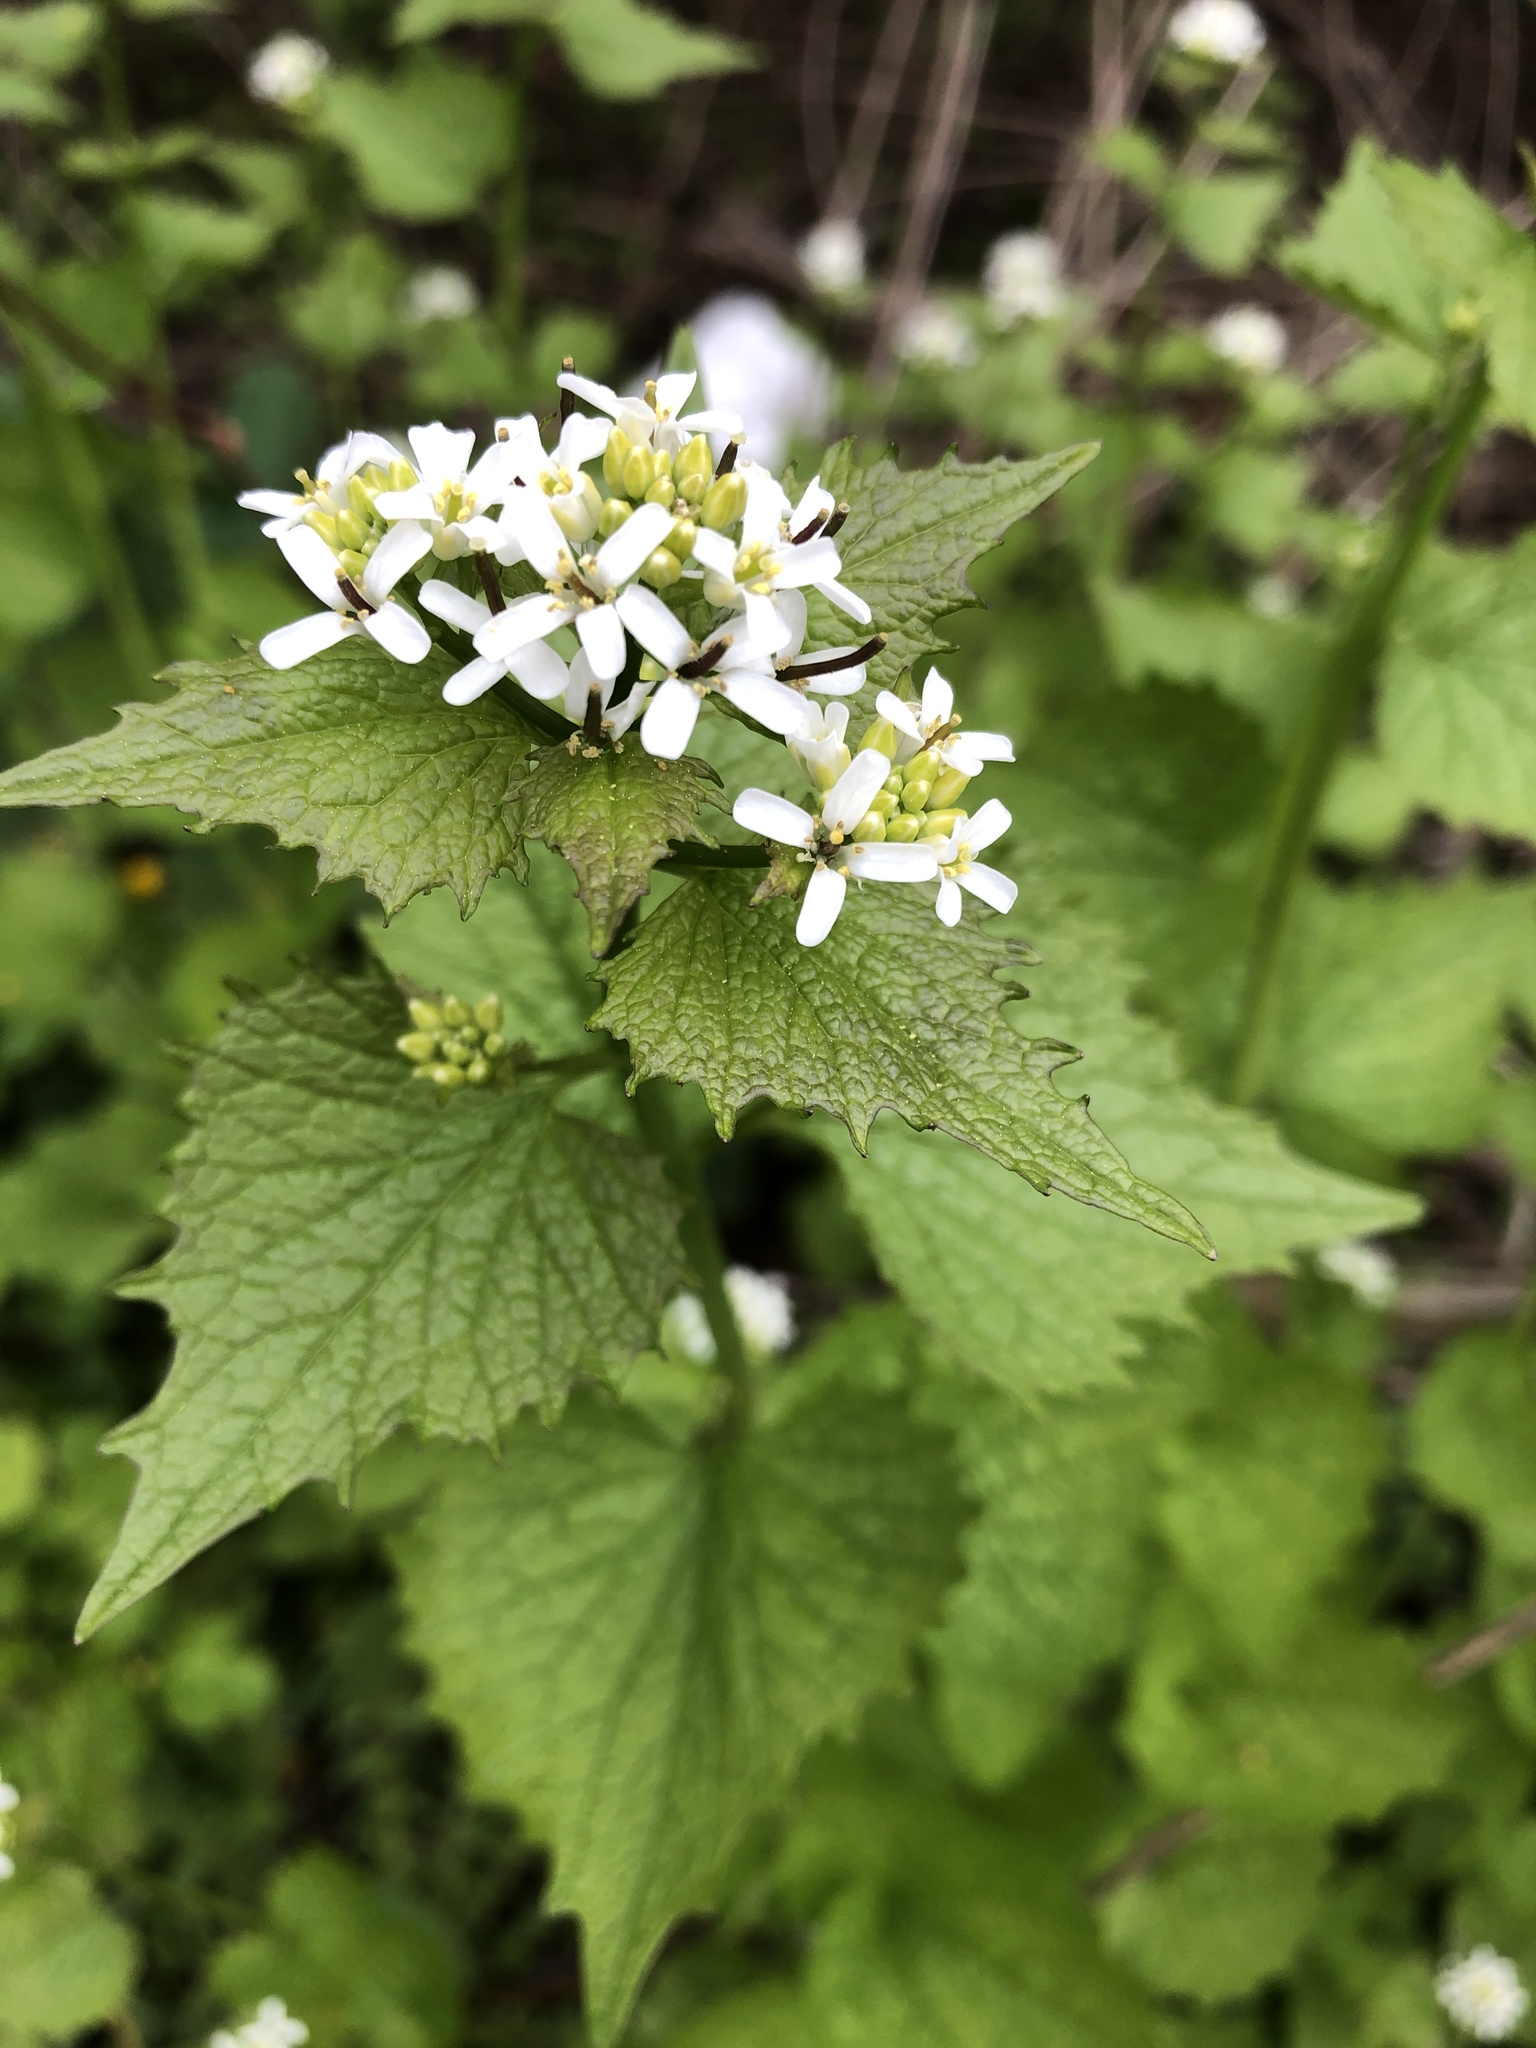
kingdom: Plantae
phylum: Tracheophyta
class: Magnoliopsida
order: Brassicales
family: Brassicaceae
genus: Alliaria
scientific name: Alliaria petiolata
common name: Garlic mustard
